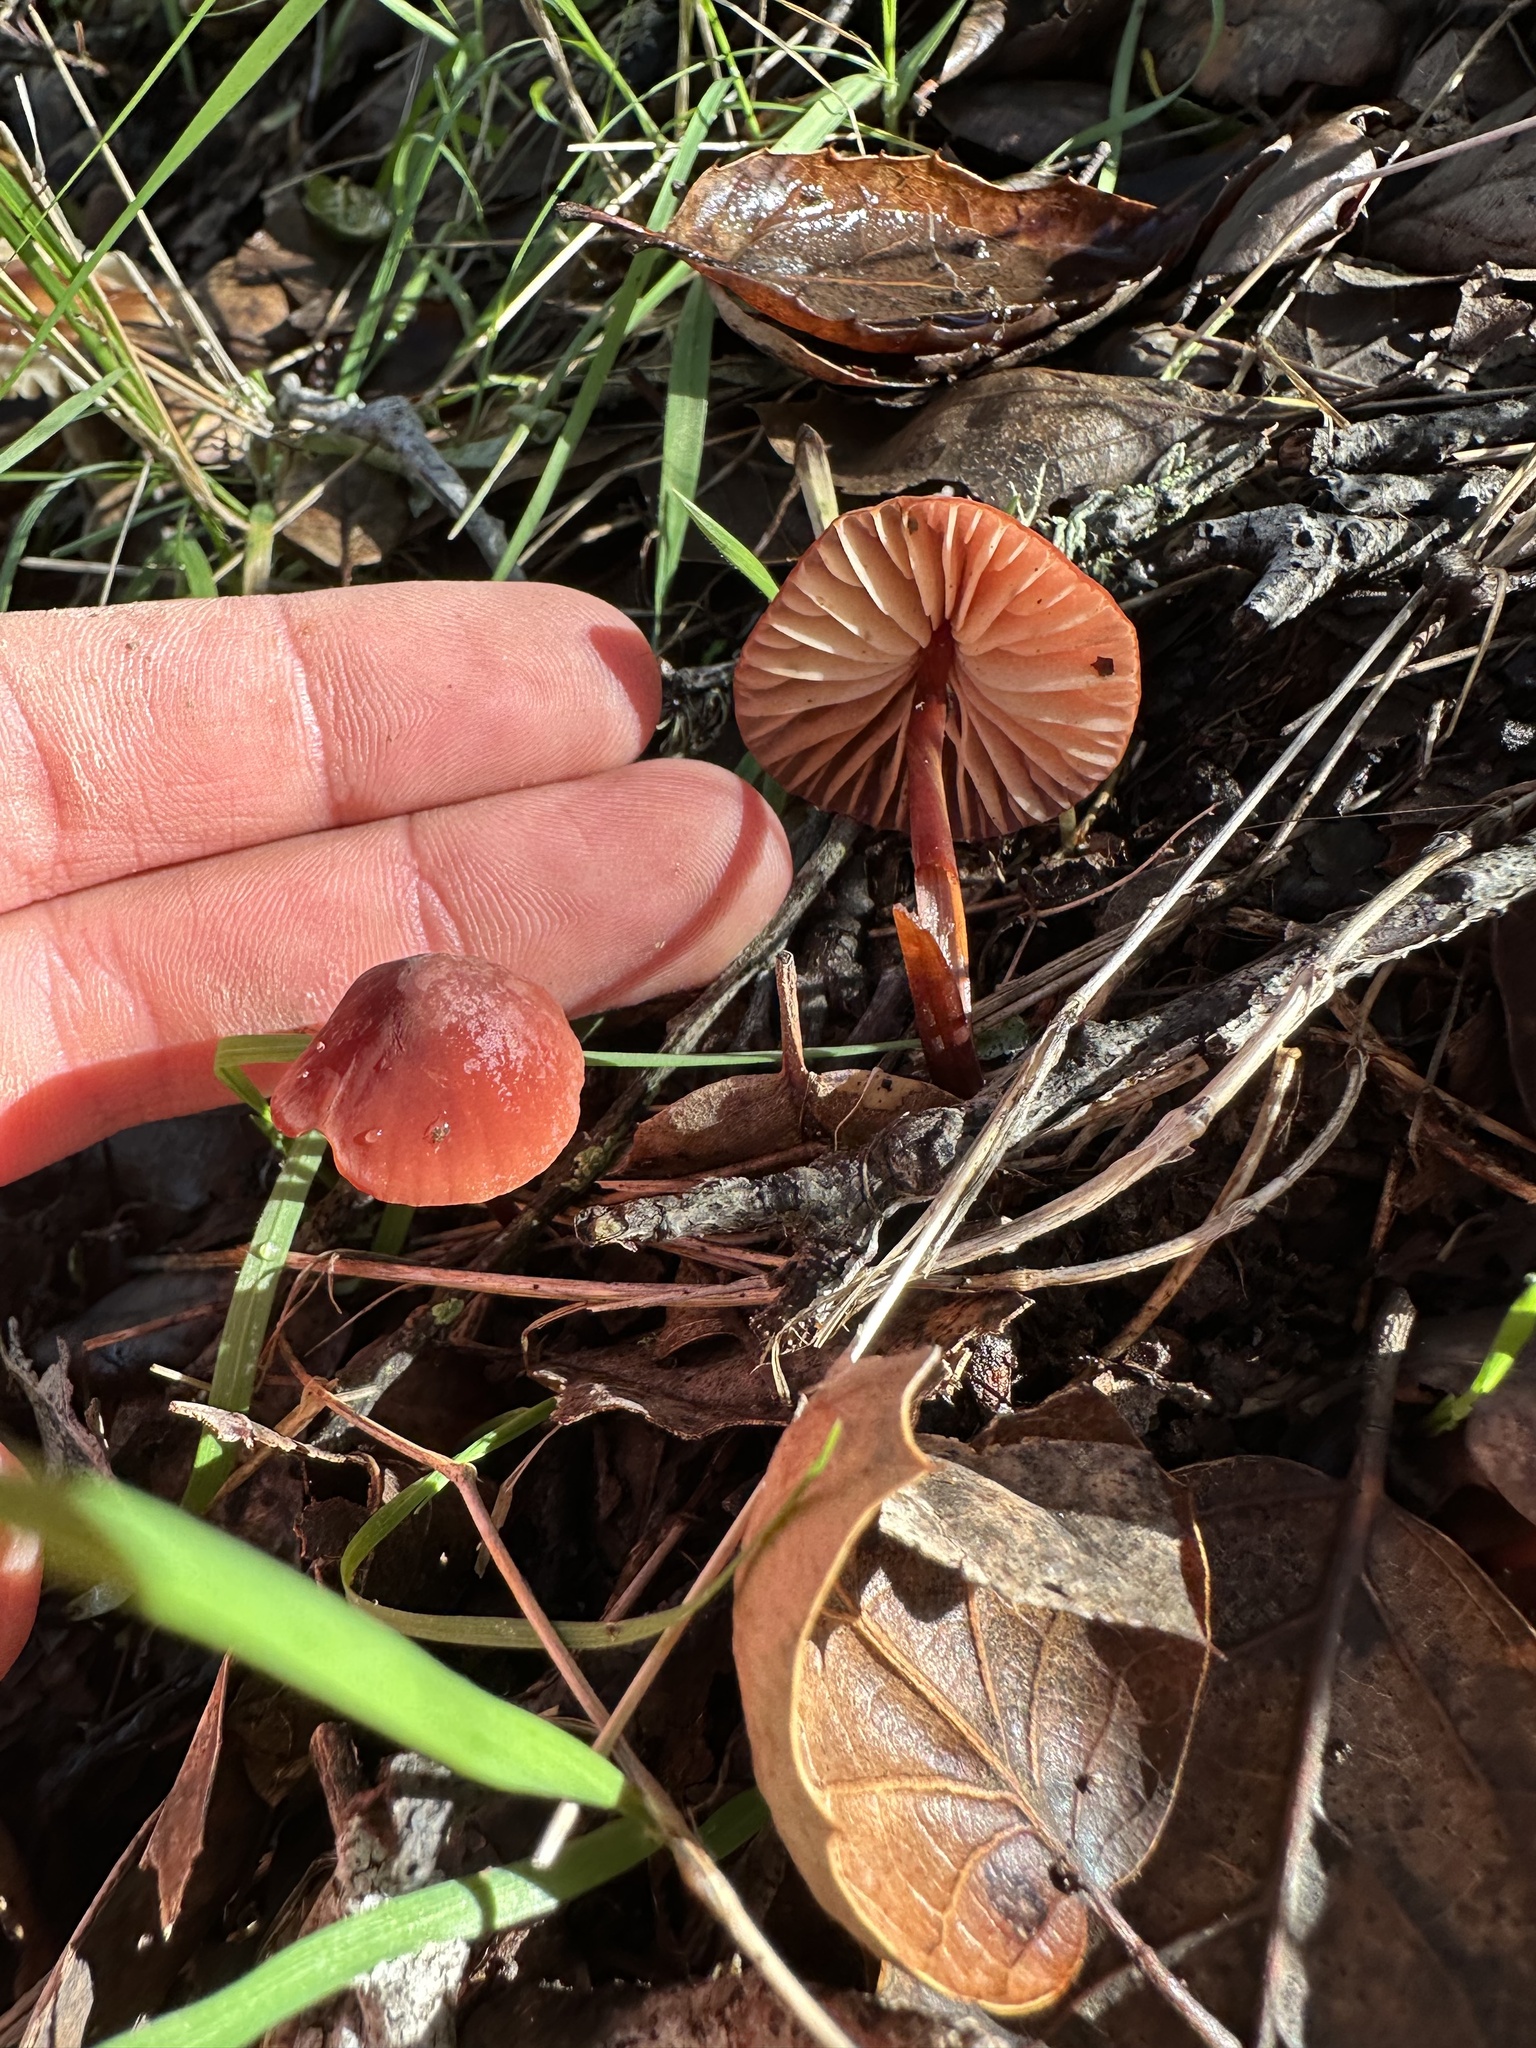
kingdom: Fungi
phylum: Basidiomycota
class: Agaricomycetes
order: Agaricales
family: Marasmiaceae
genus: Marasmius
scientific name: Marasmius plicatulus
